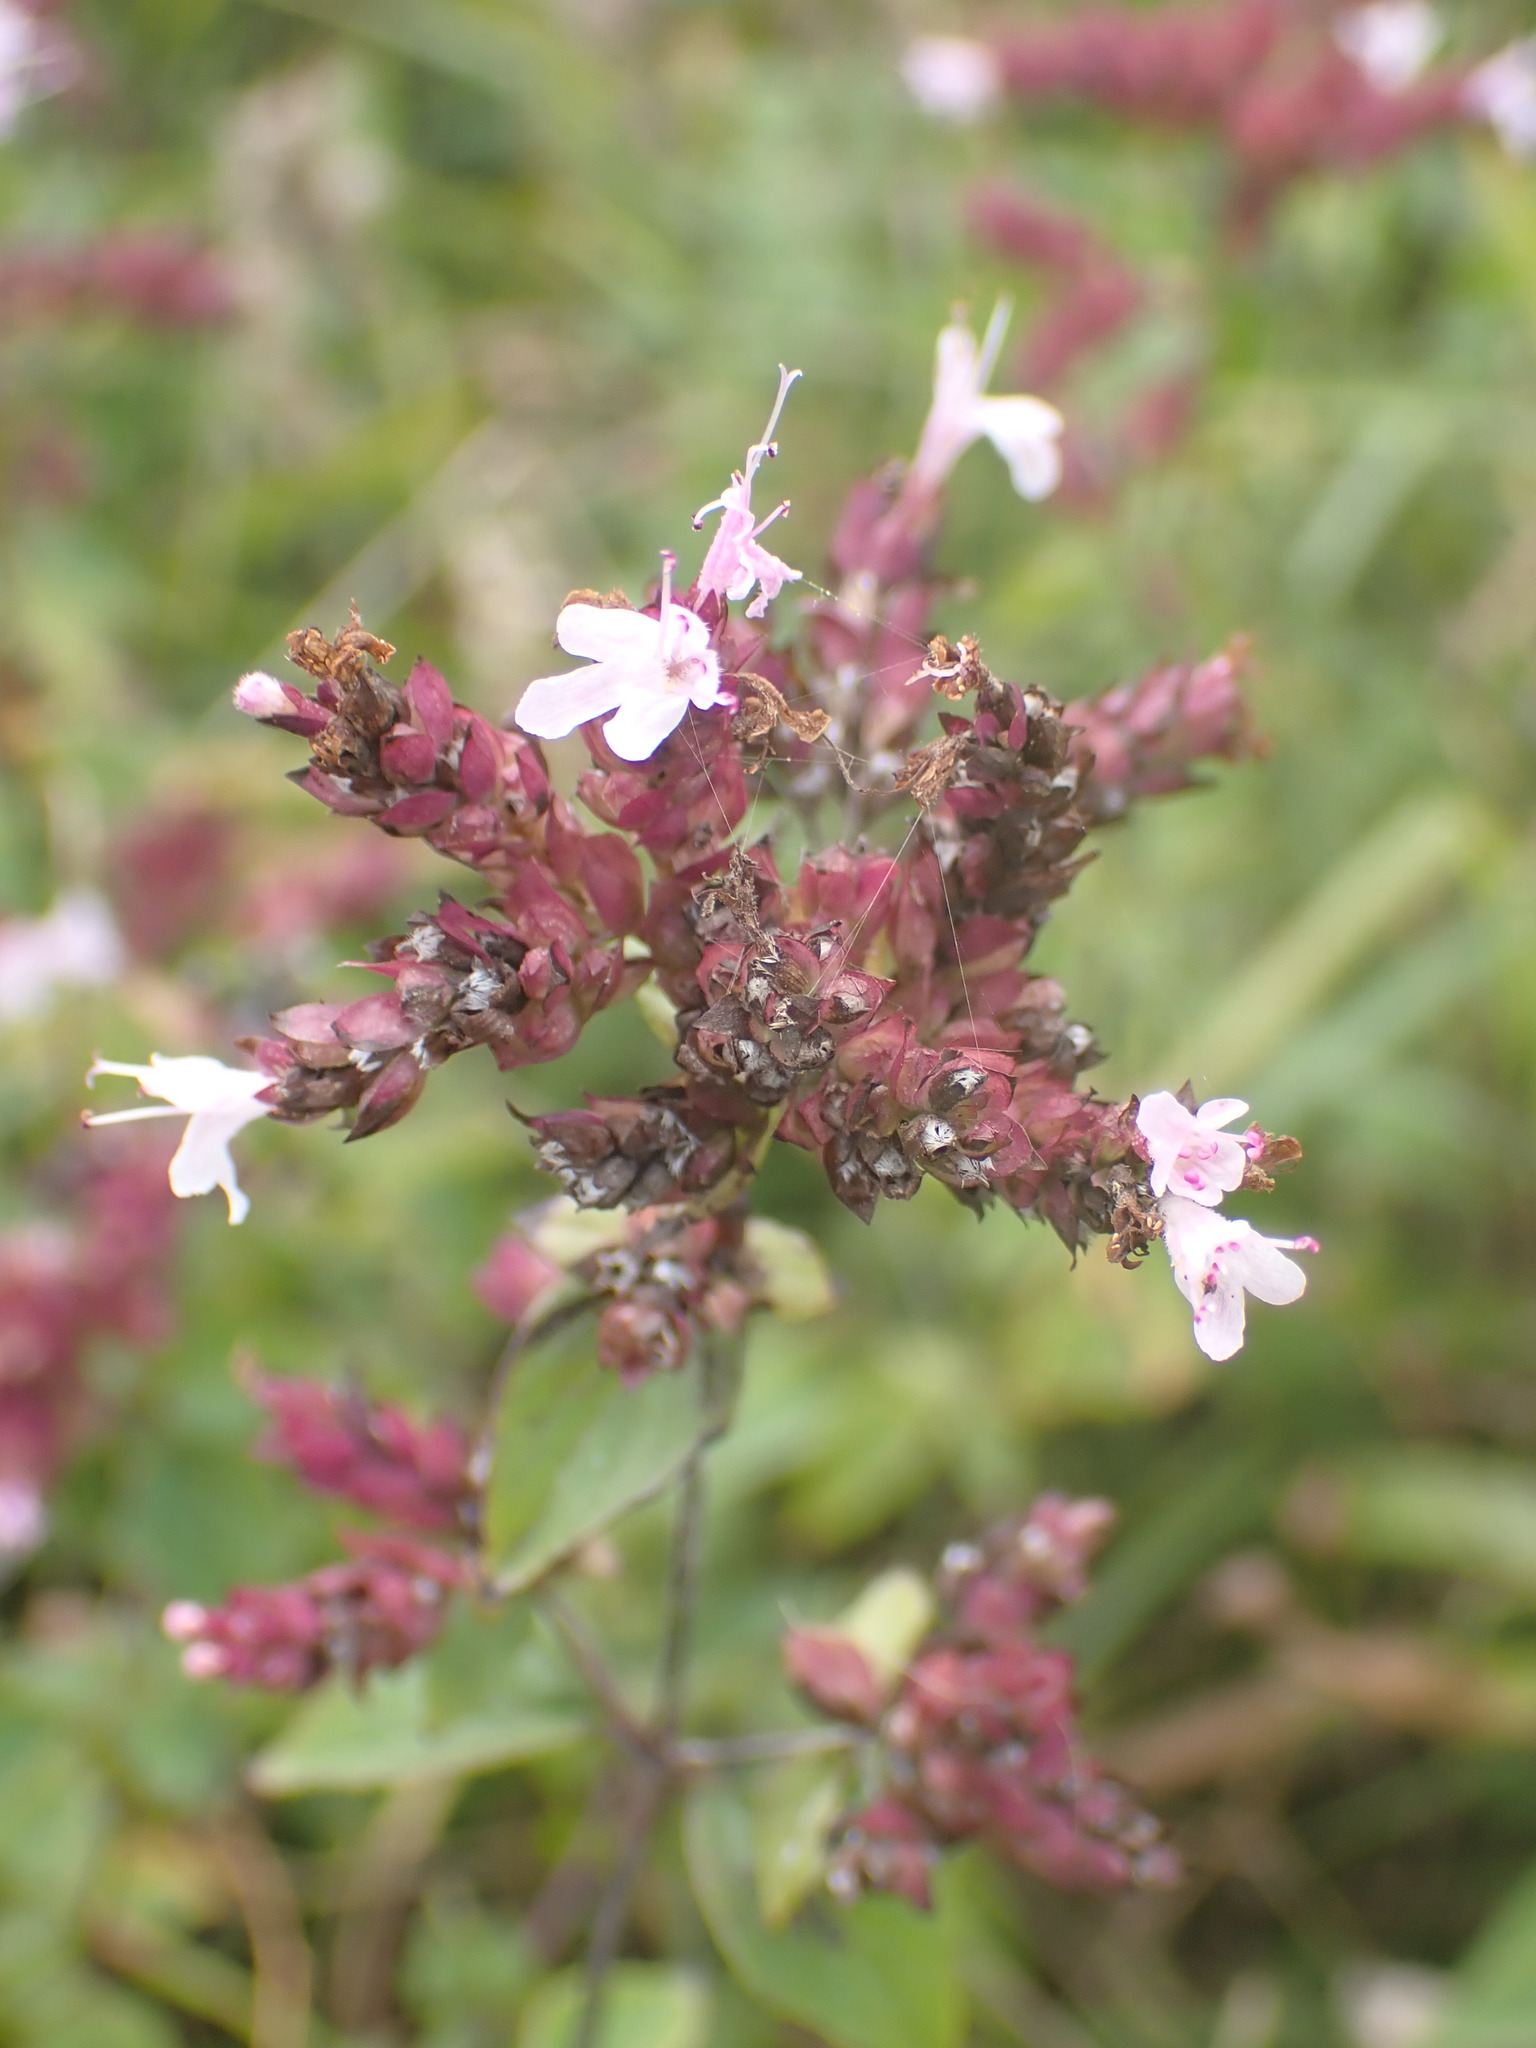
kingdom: Plantae
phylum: Tracheophyta
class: Magnoliopsida
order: Lamiales
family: Lamiaceae
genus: Origanum
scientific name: Origanum vulgare
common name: Wild marjoram
